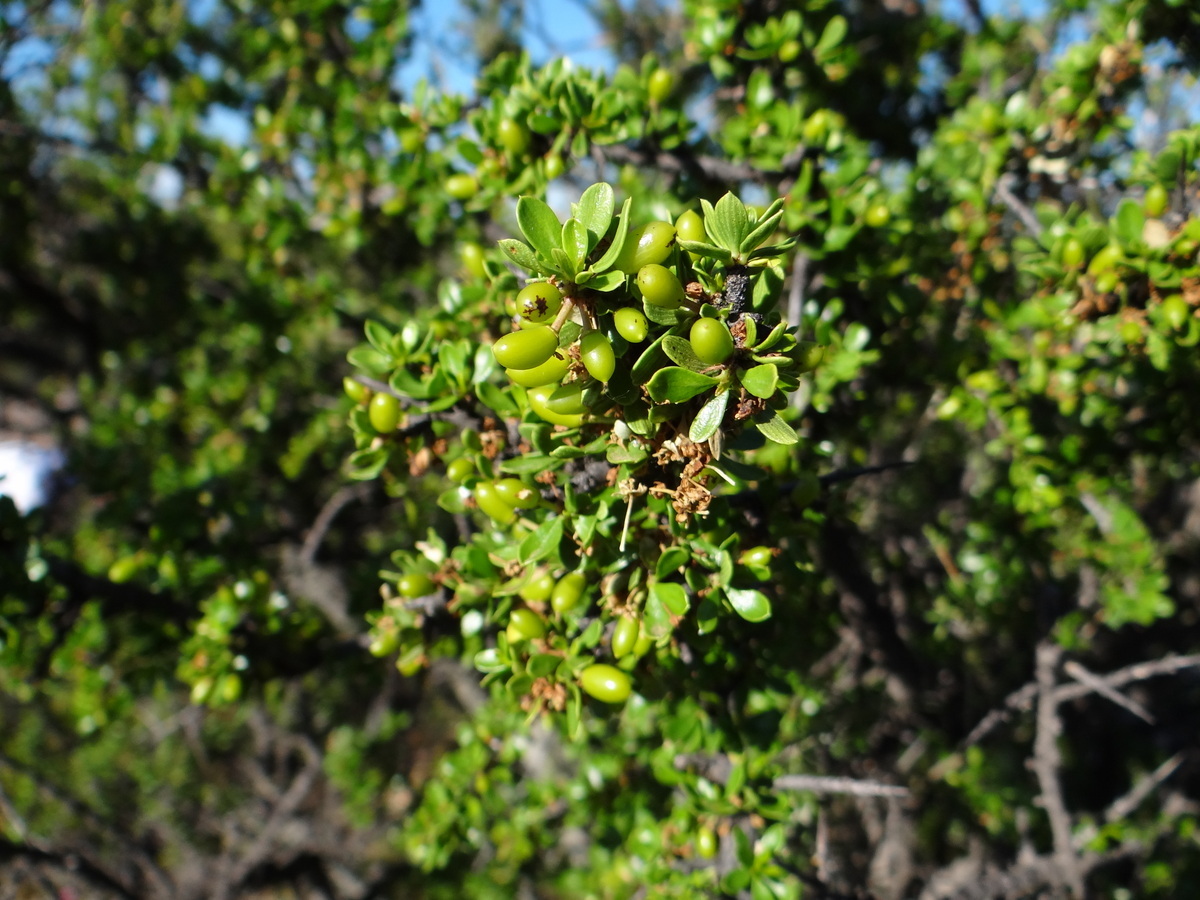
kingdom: Plantae
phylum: Tracheophyta
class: Magnoliopsida
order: Rosales
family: Rhamnaceae
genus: Condalia
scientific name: Condalia microphylla
